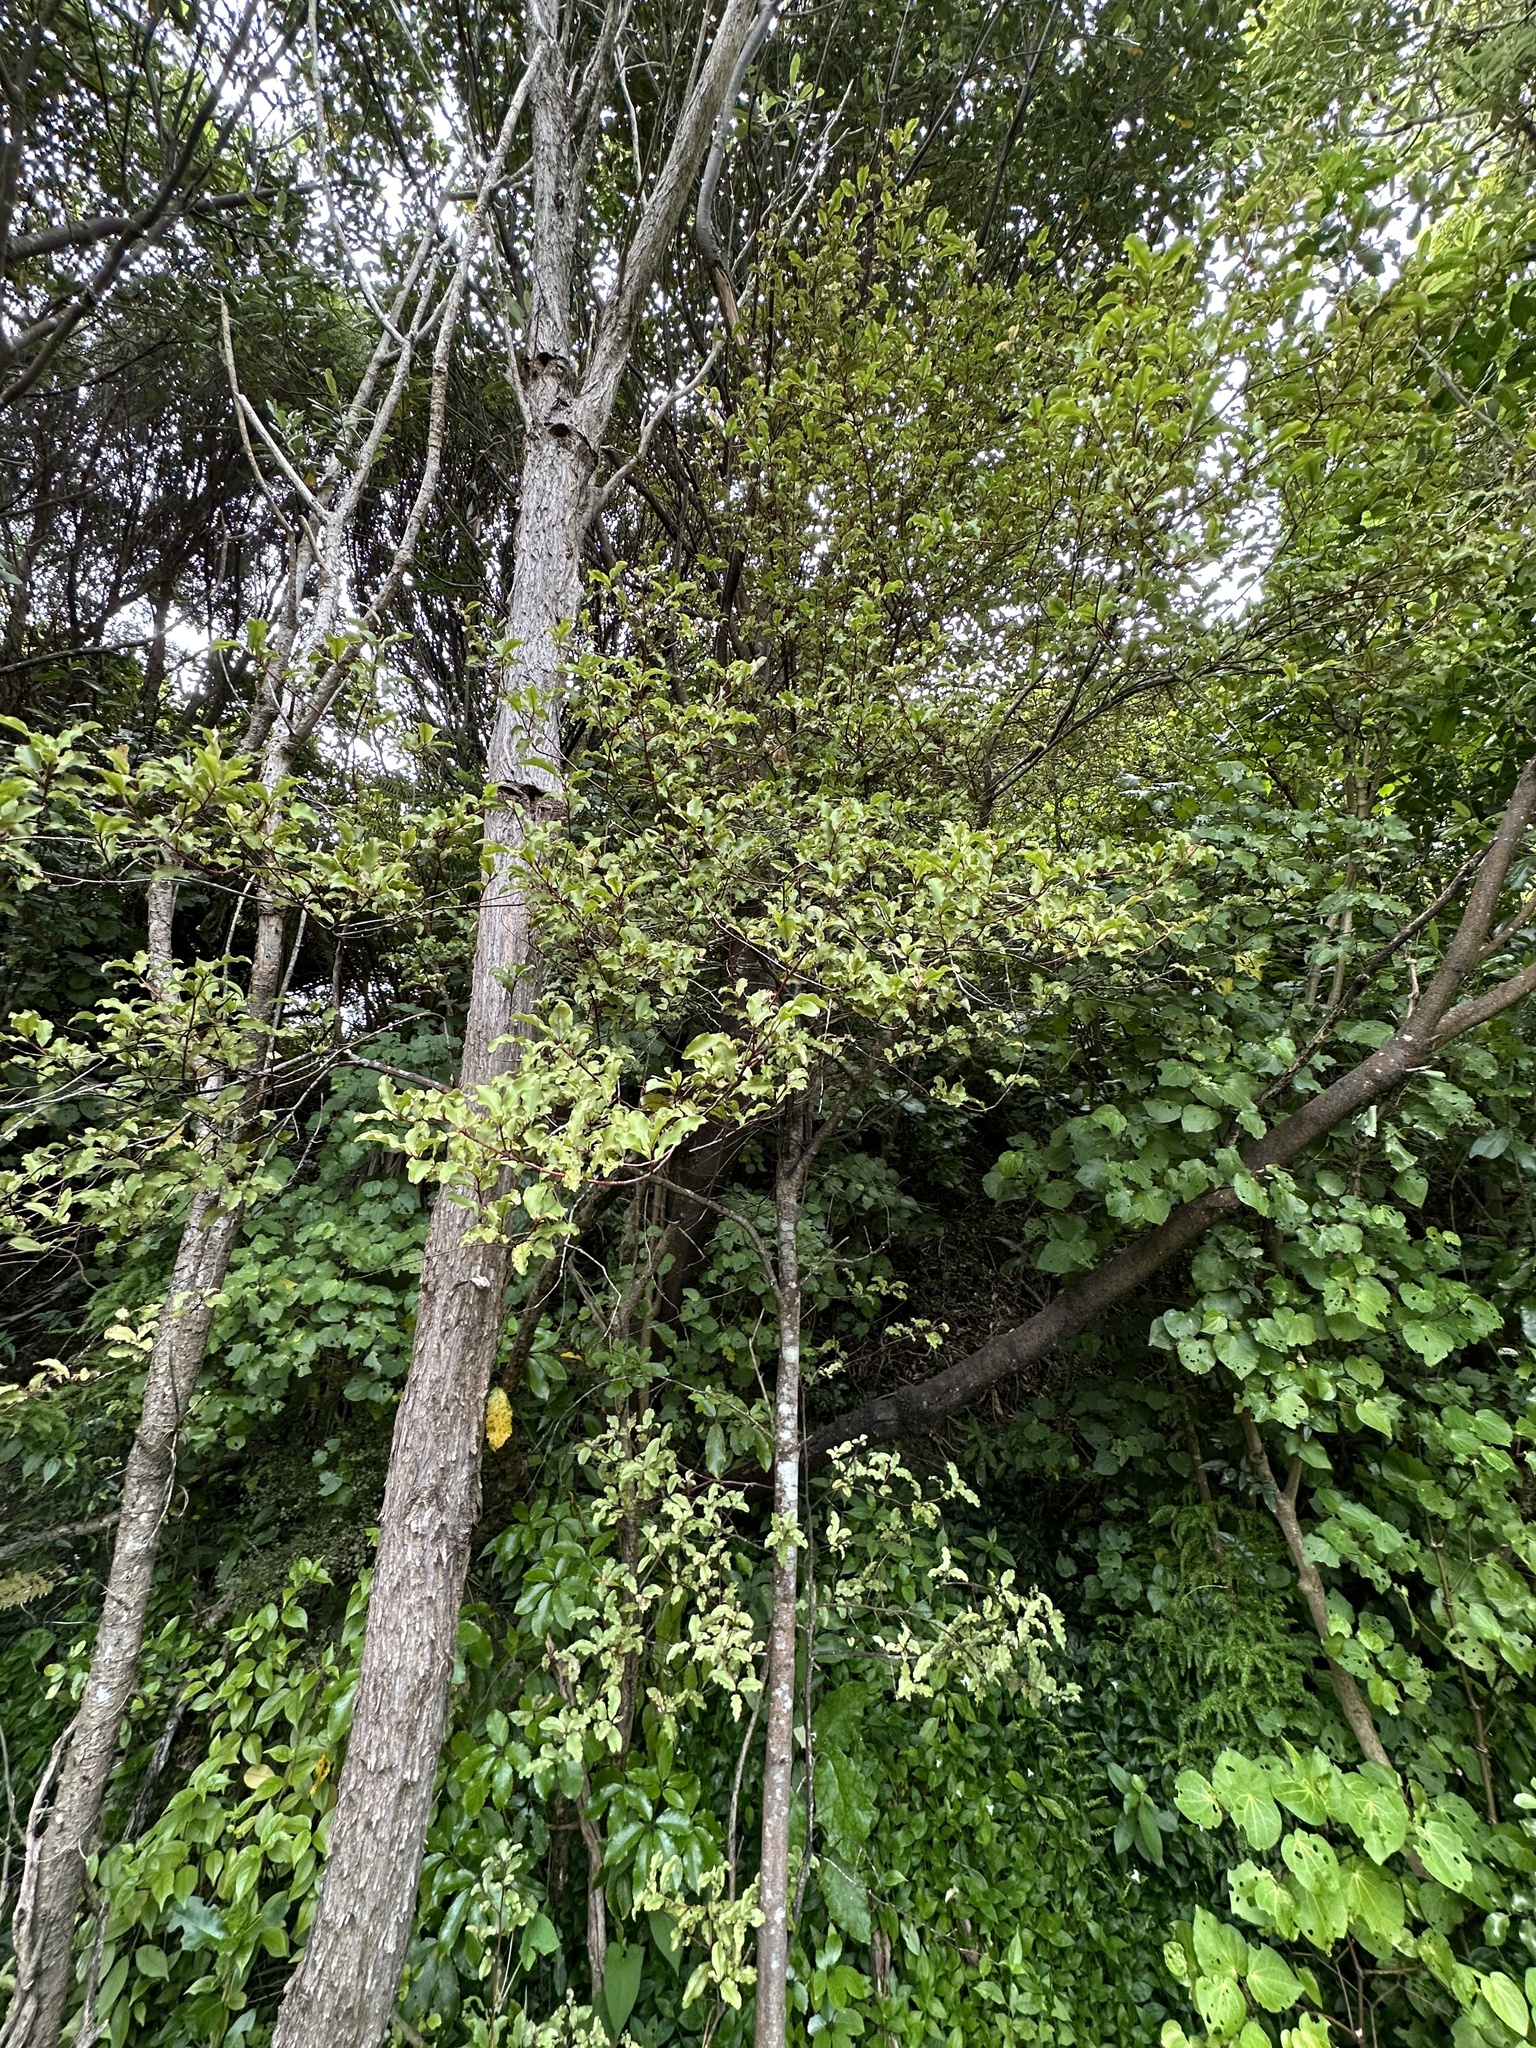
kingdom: Plantae
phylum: Tracheophyta
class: Magnoliopsida
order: Ericales
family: Primulaceae
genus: Myrsine
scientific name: Myrsine australis
